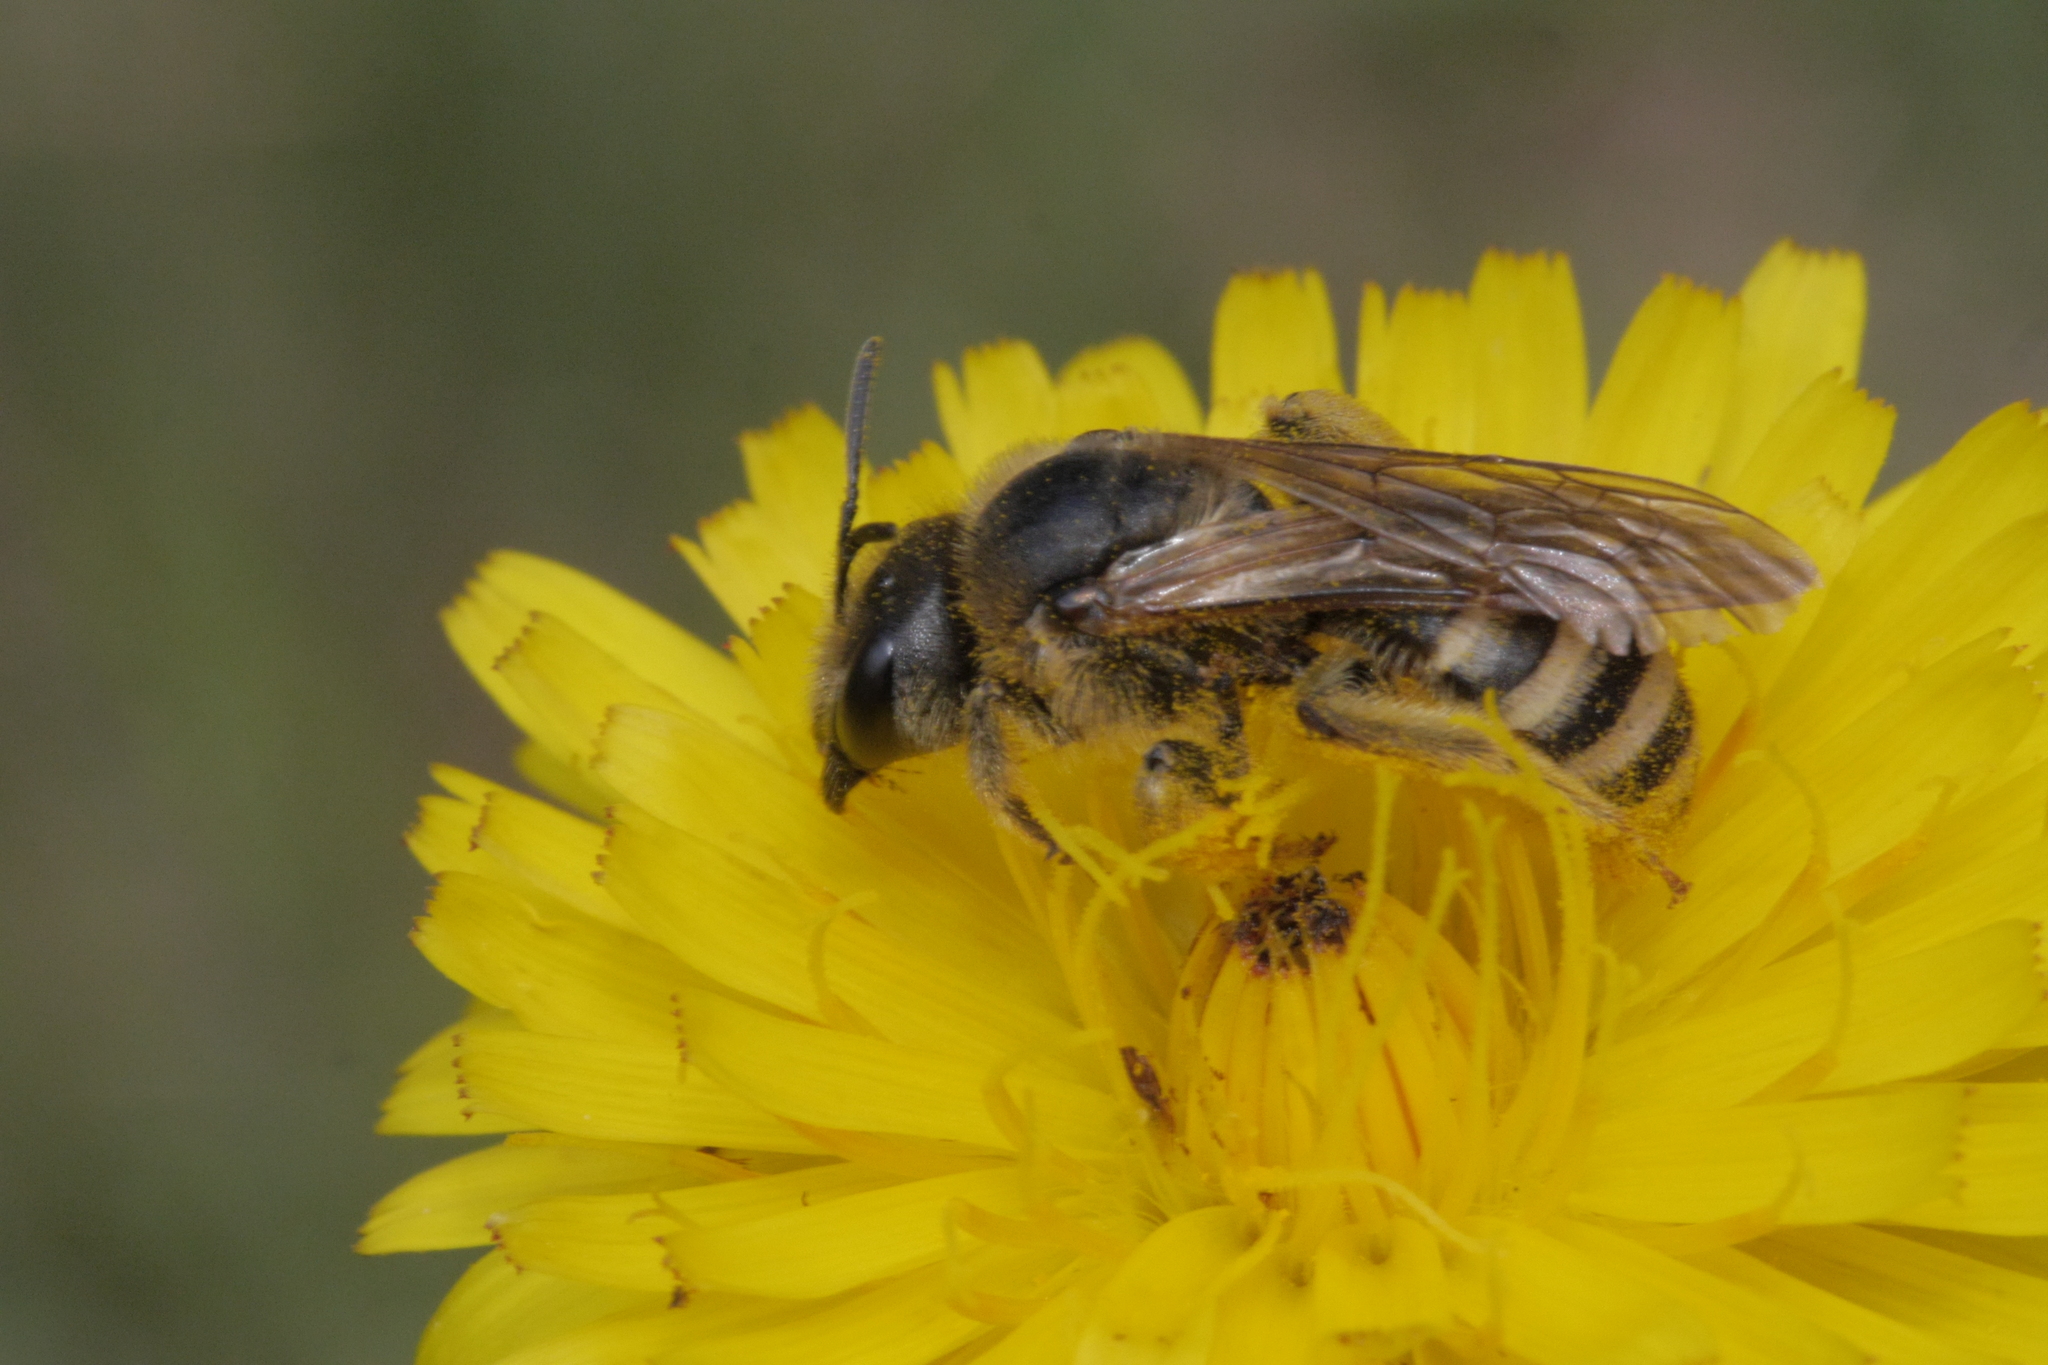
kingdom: Animalia
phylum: Arthropoda
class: Insecta
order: Hymenoptera
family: Halictidae
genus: Halictus
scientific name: Halictus scabiosae
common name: Great banded furrow bee
